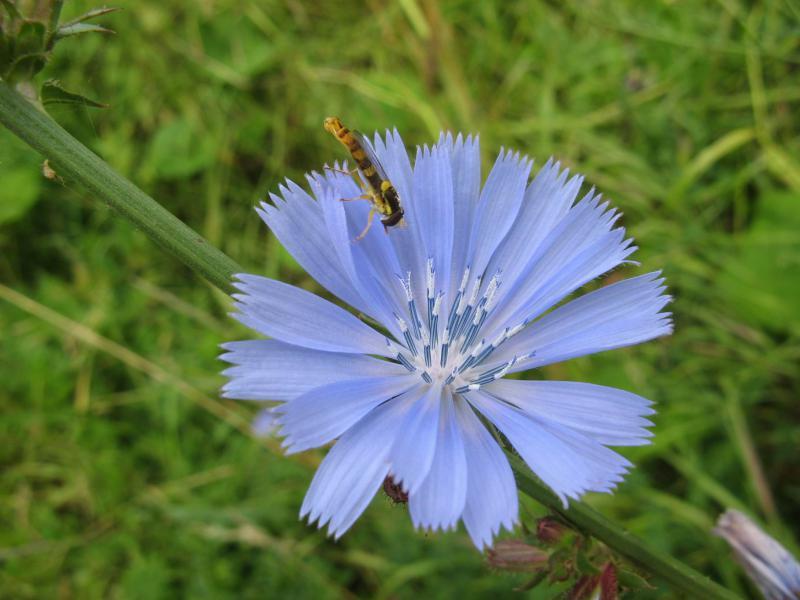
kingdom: Plantae
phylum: Tracheophyta
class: Magnoliopsida
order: Asterales
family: Asteraceae
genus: Cichorium
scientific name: Cichorium intybus
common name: Chicory
